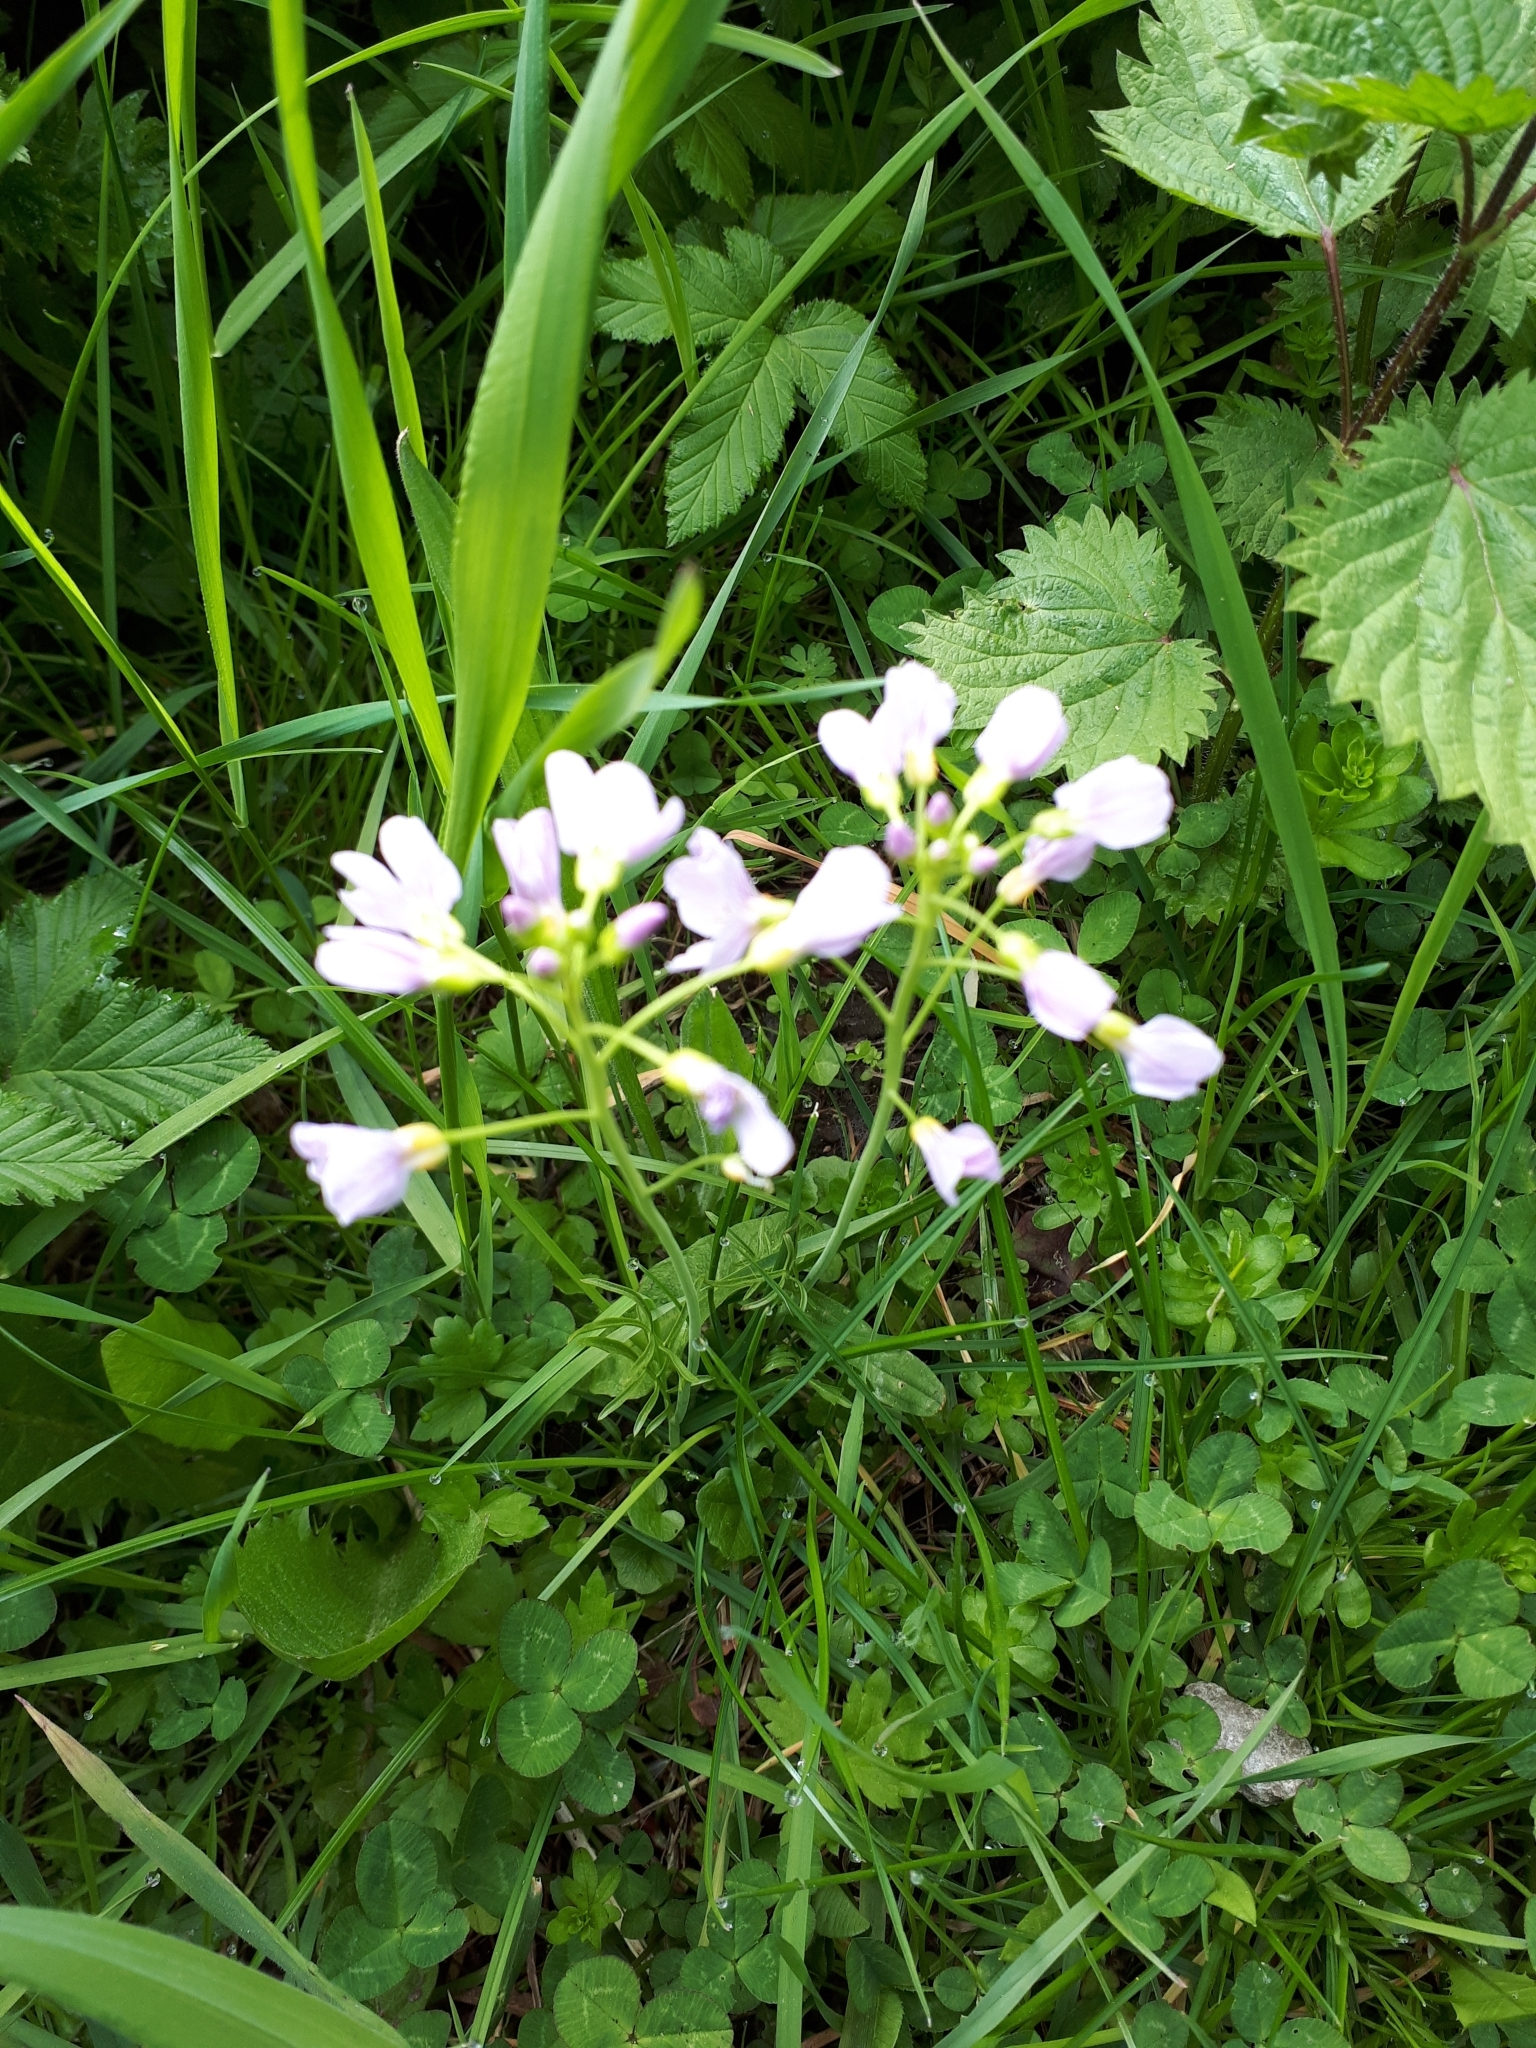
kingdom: Plantae
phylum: Tracheophyta
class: Magnoliopsida
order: Brassicales
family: Brassicaceae
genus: Cardamine
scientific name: Cardamine pratensis
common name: Cuckoo flower
